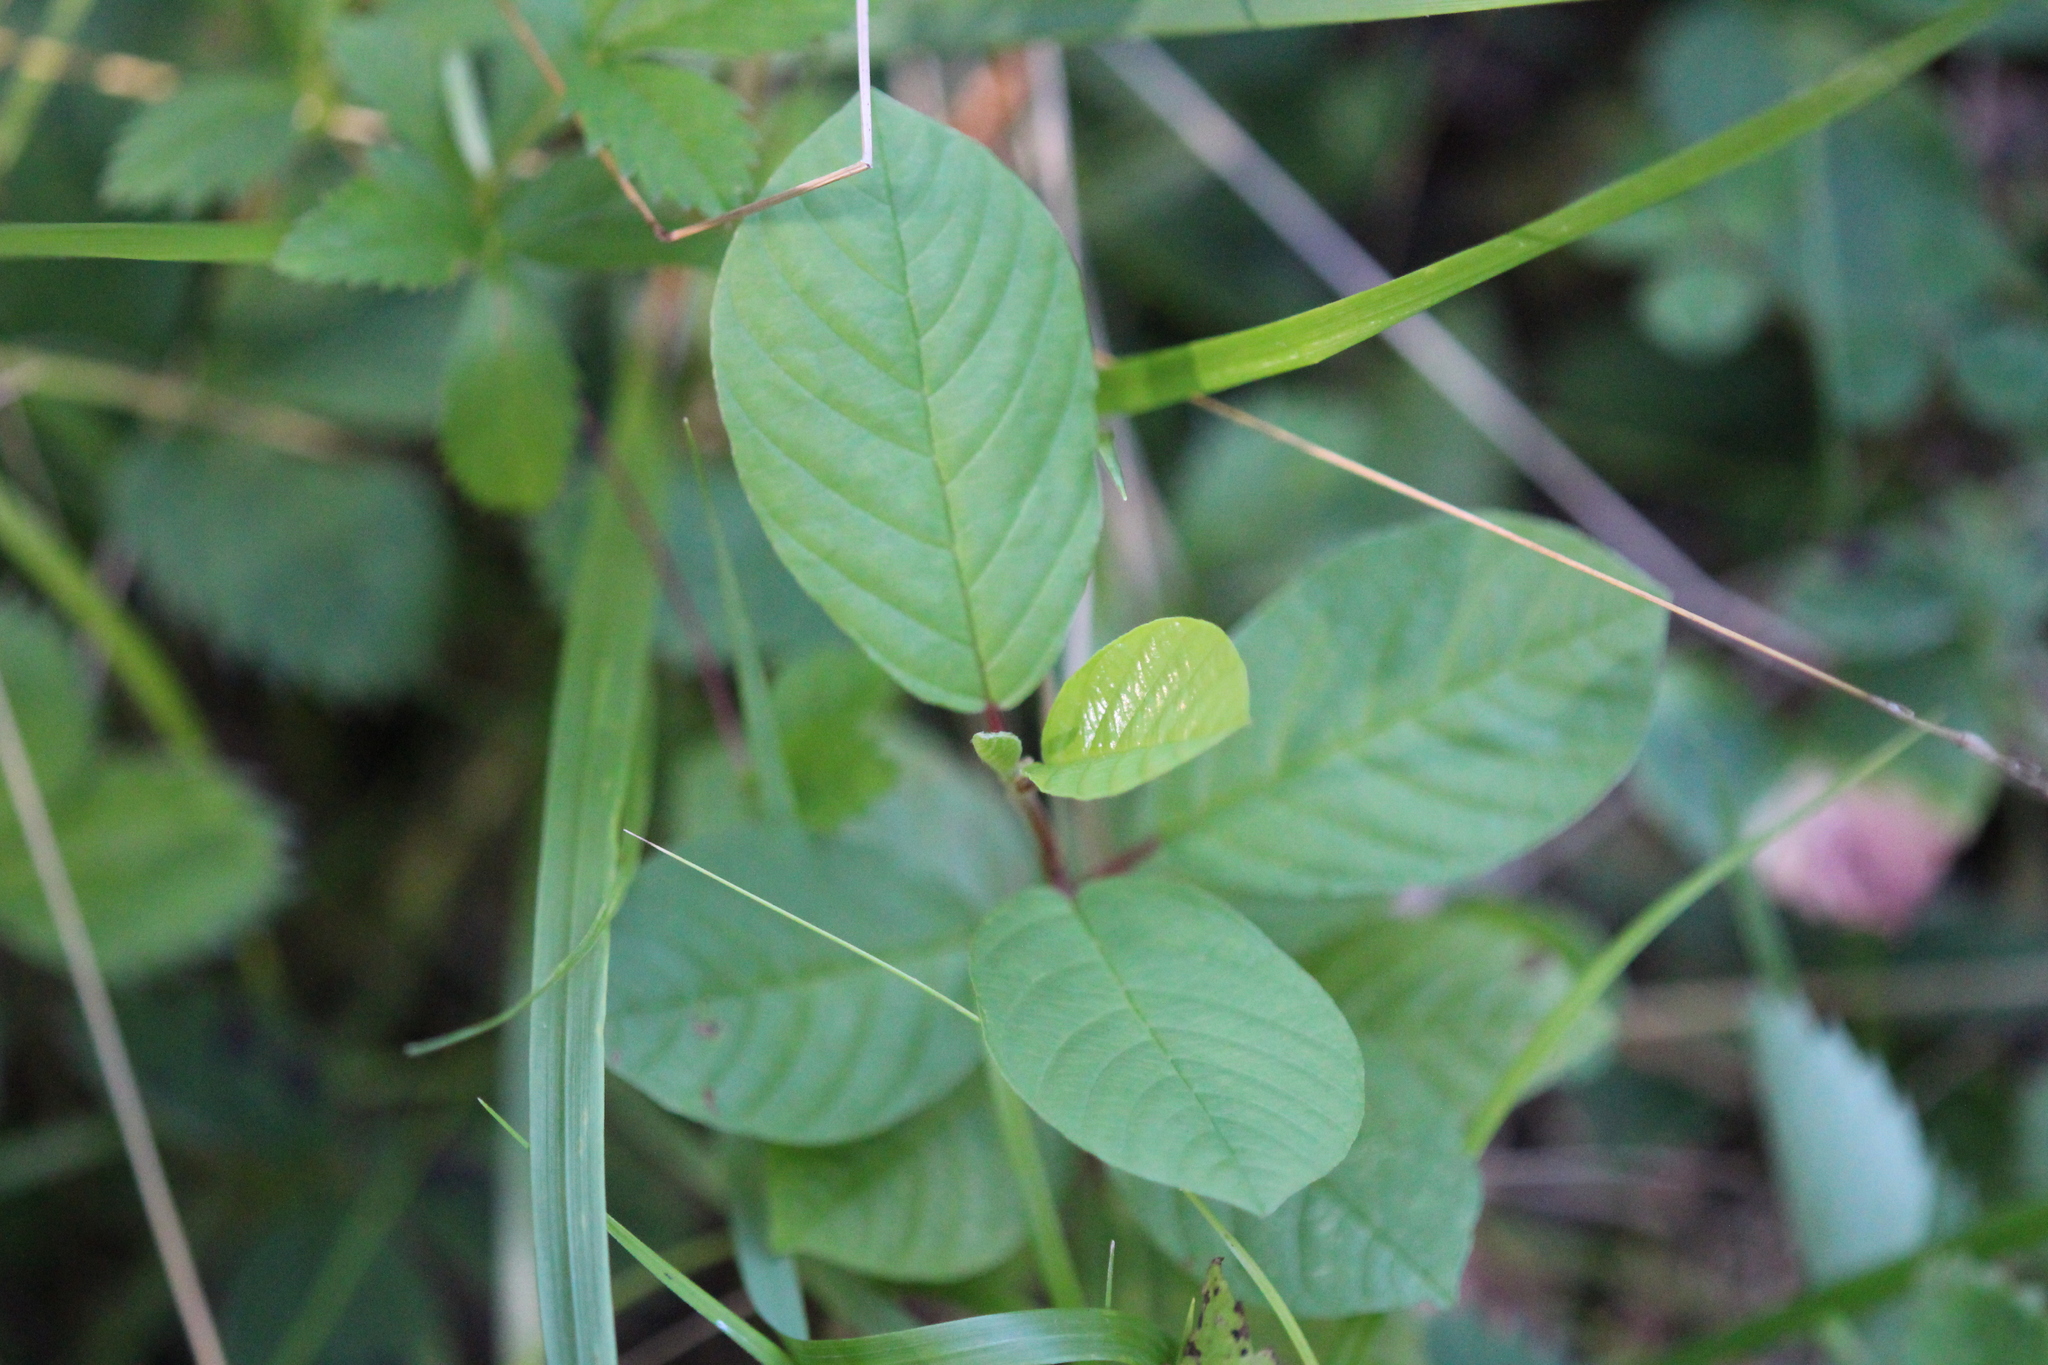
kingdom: Plantae
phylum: Tracheophyta
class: Magnoliopsida
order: Rosales
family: Rhamnaceae
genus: Frangula
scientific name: Frangula alnus
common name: Alder buckthorn
